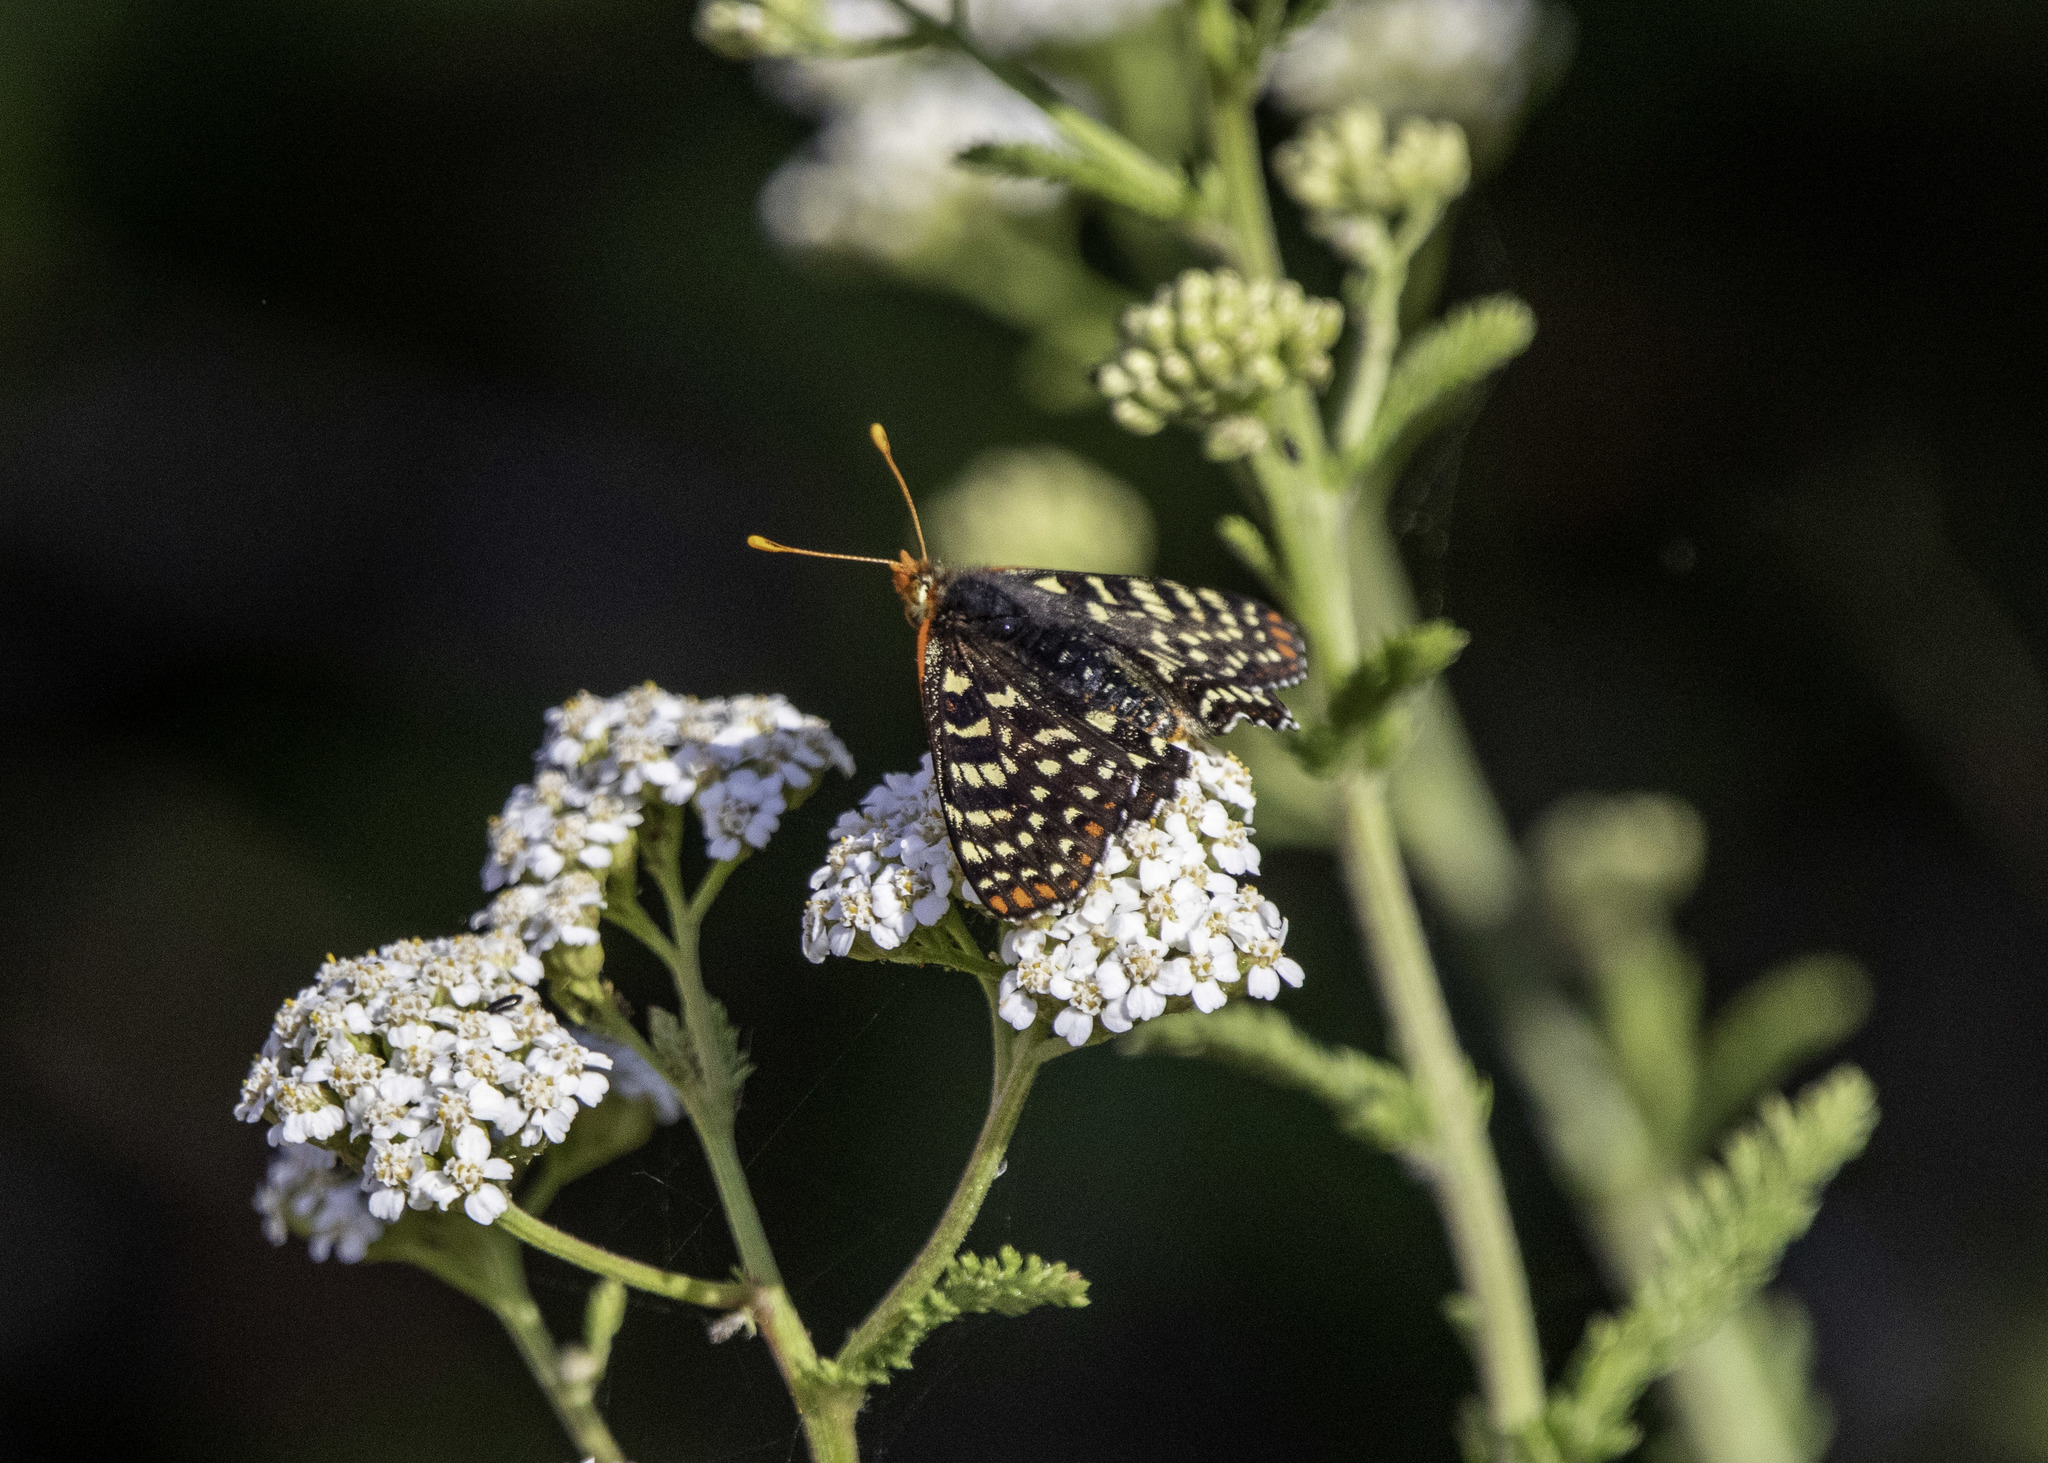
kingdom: Animalia
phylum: Arthropoda
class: Insecta
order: Lepidoptera
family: Nymphalidae
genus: Occidryas
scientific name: Occidryas chalcedona
